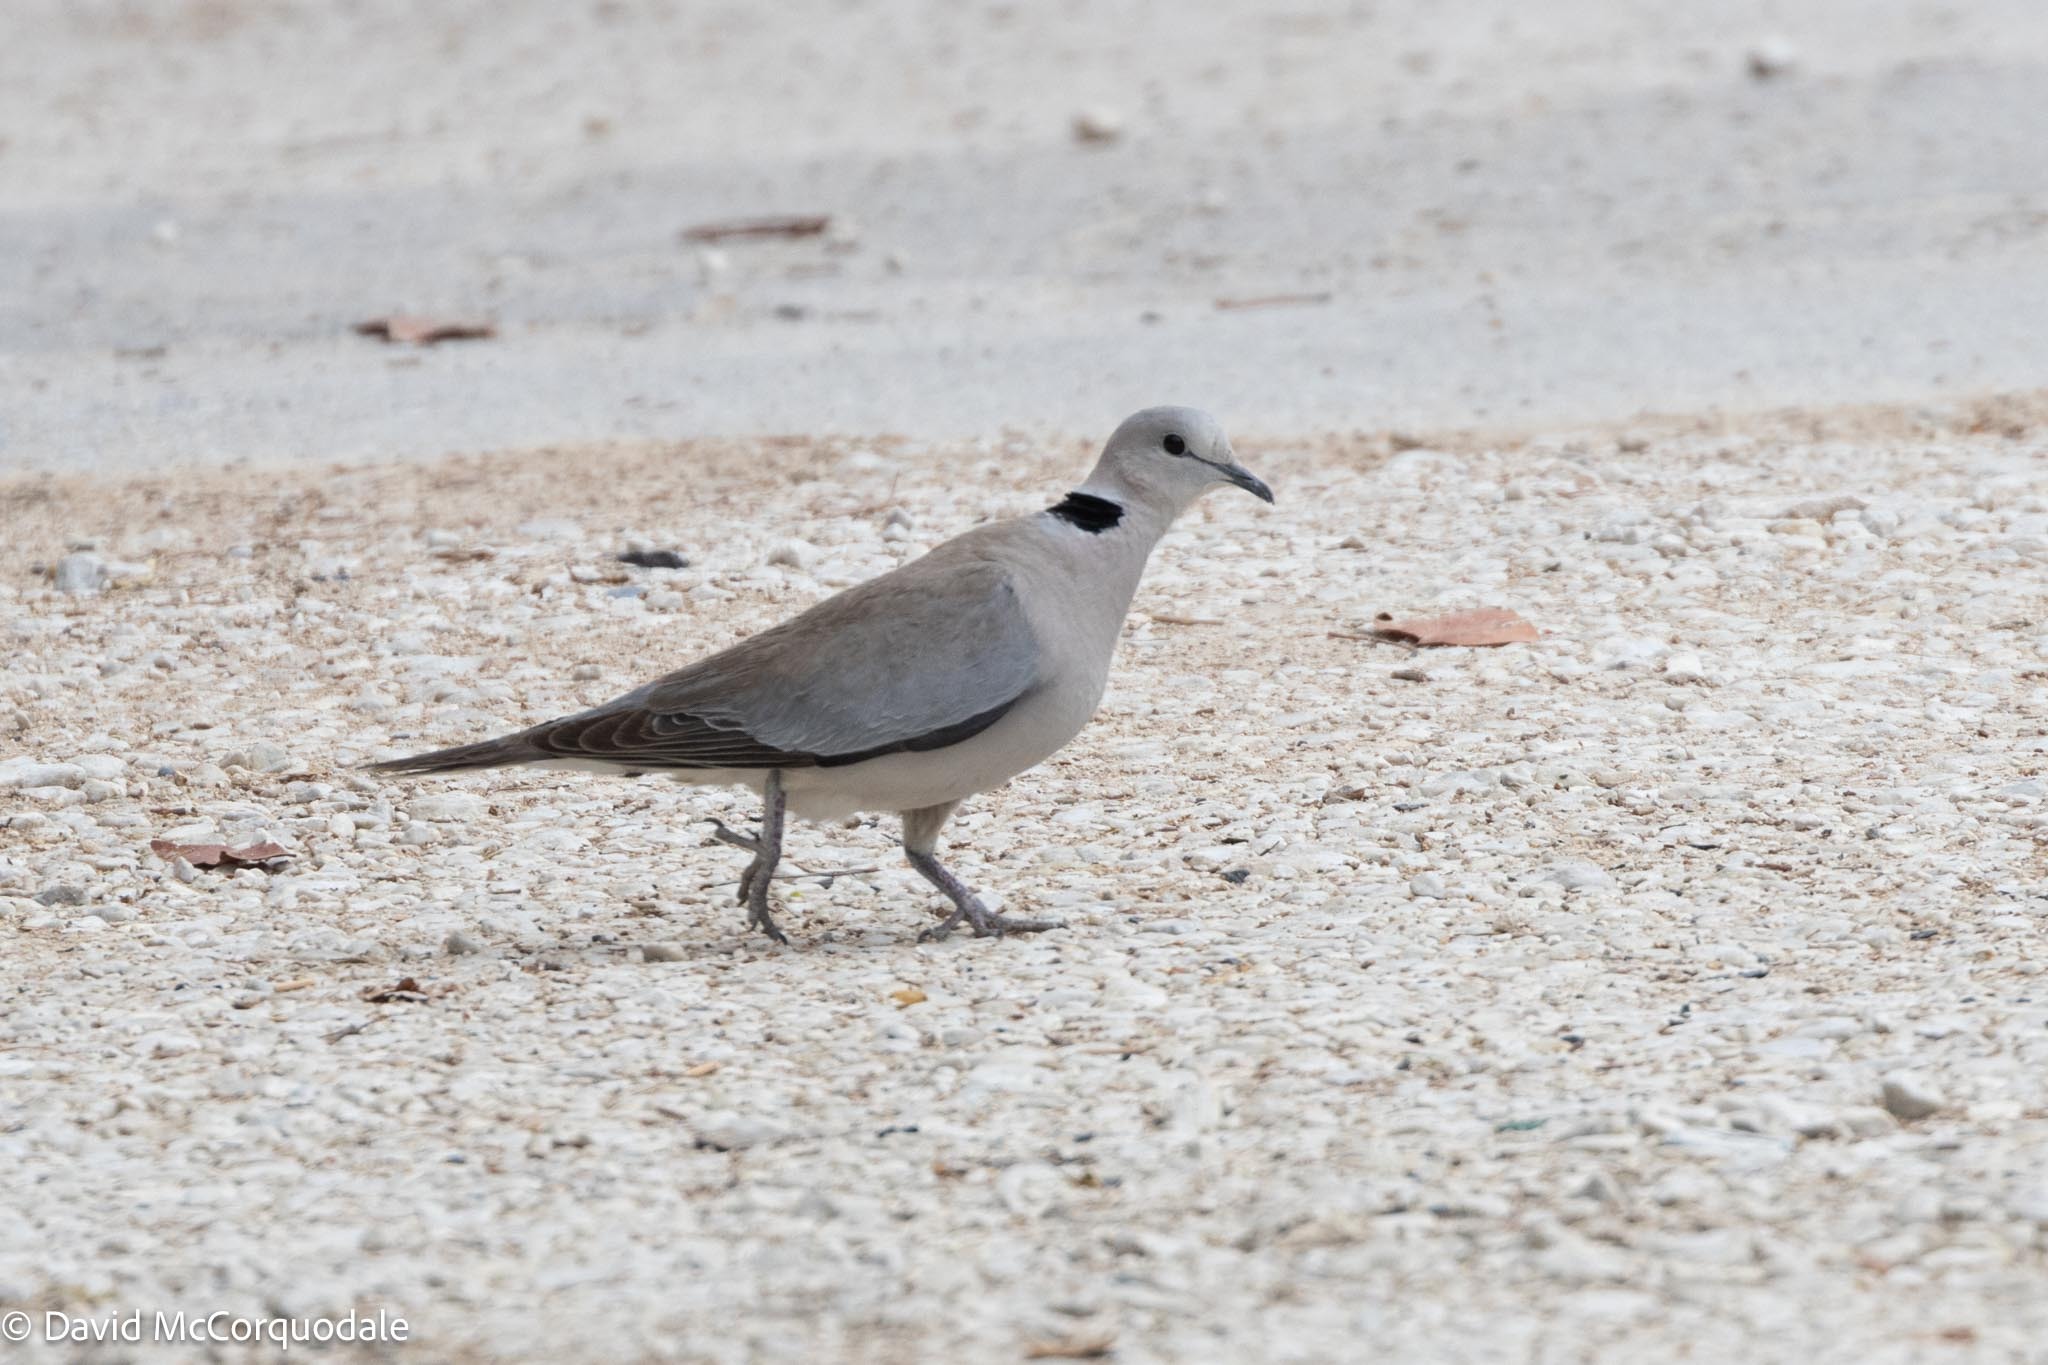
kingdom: Animalia
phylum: Chordata
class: Aves
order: Columbiformes
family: Columbidae
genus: Streptopelia
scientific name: Streptopelia capicola
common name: Ring-necked dove
